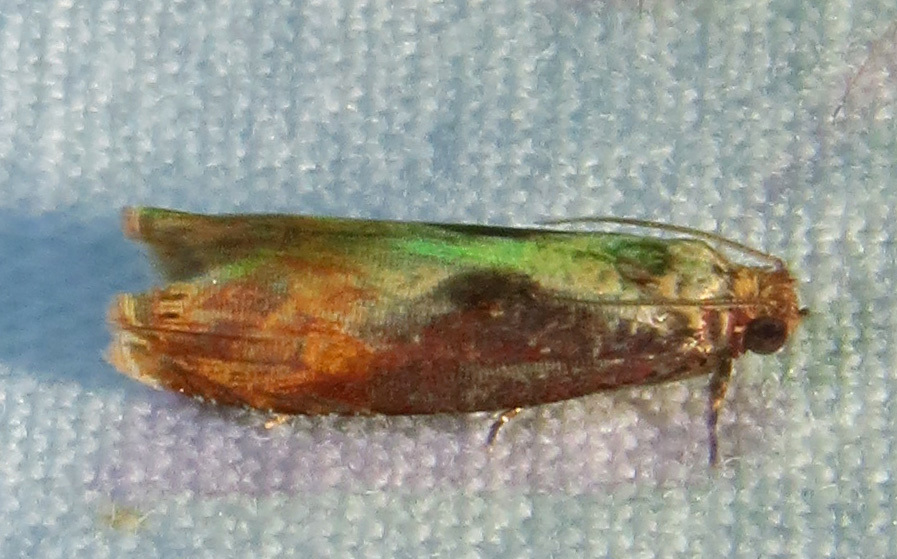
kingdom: Animalia
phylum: Arthropoda
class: Insecta
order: Lepidoptera
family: Tortricidae
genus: Episimus
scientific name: Episimus tyrius
